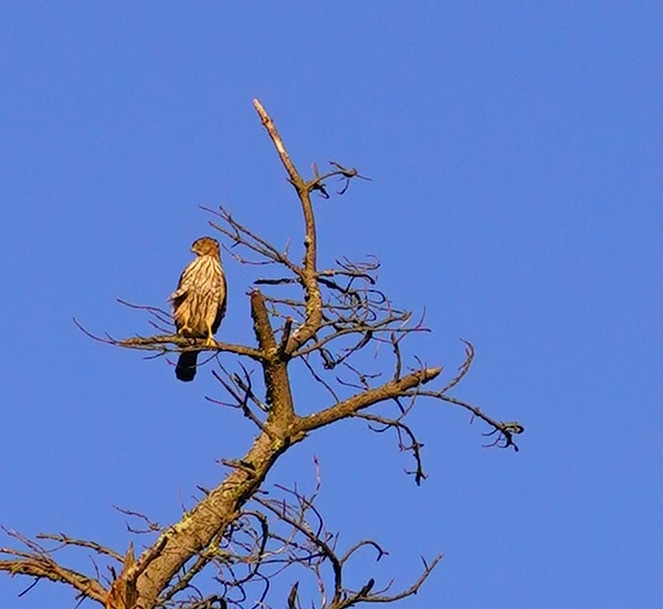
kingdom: Animalia
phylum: Chordata
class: Aves
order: Accipitriformes
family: Accipitridae
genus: Accipiter
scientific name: Accipiter cooperii
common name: Cooper's hawk
